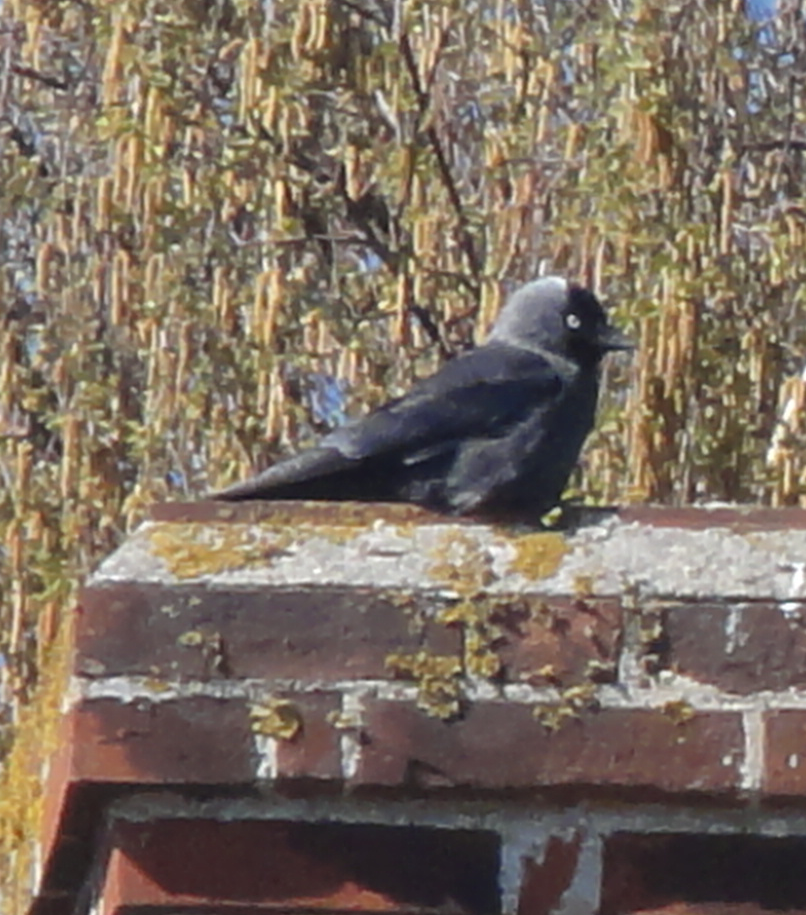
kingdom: Animalia
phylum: Chordata
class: Aves
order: Passeriformes
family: Corvidae
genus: Coloeus
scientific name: Coloeus monedula
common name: Western jackdaw
